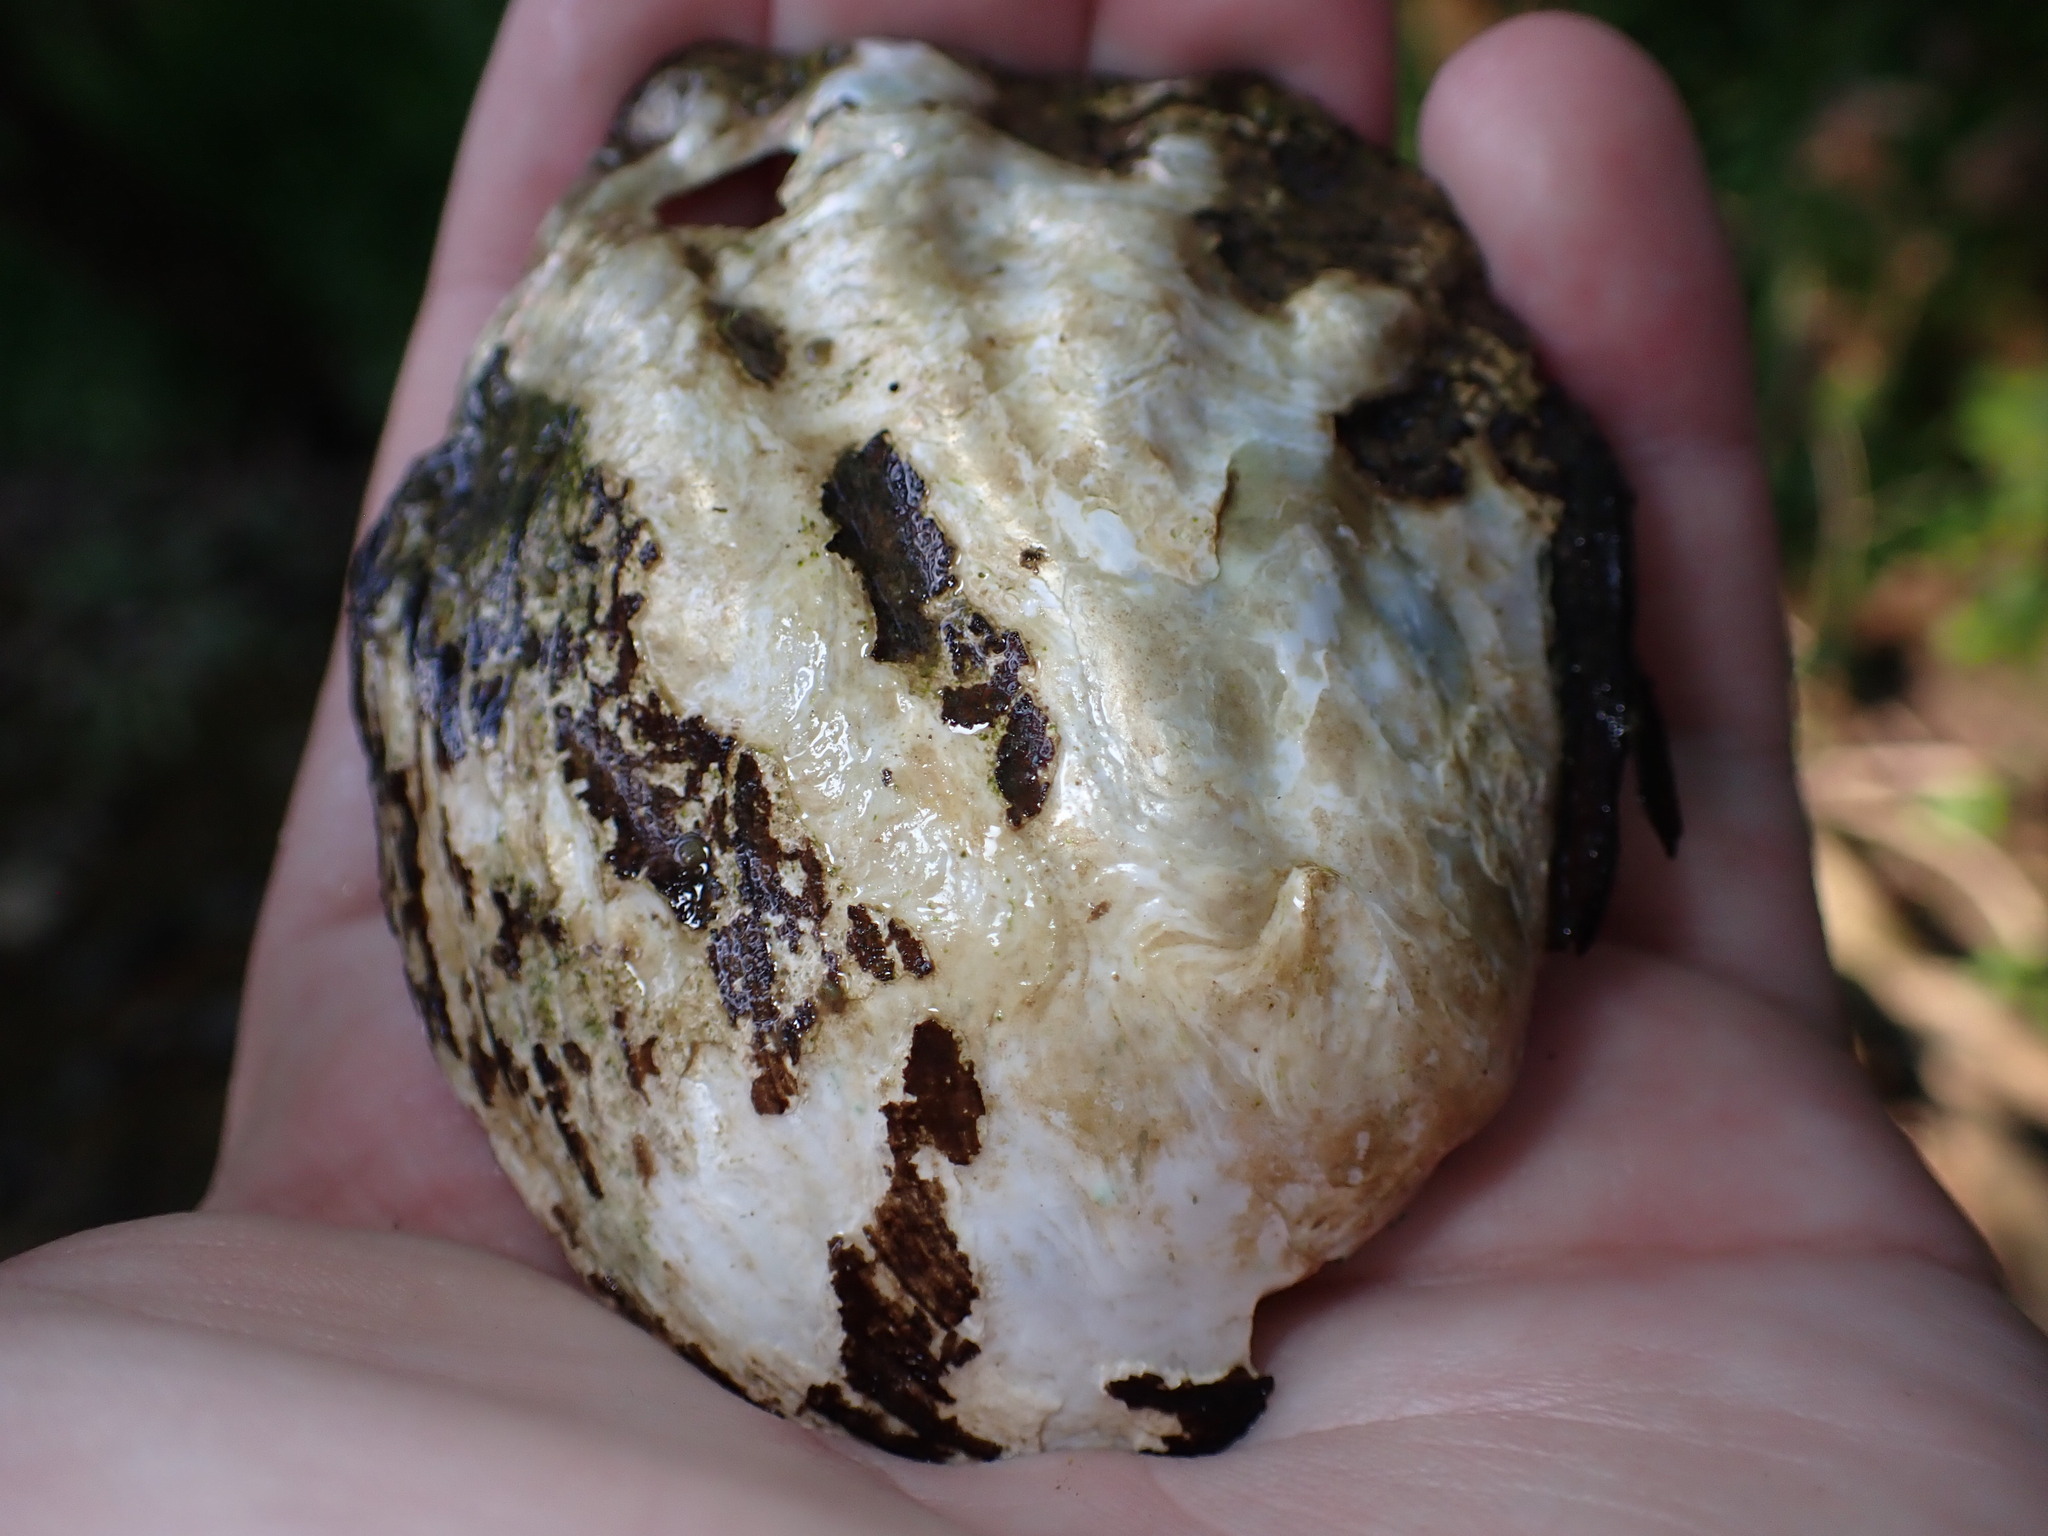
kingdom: Animalia
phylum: Mollusca
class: Bivalvia
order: Unionida
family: Unionidae
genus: Amblema
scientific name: Amblema plicata
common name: Threeridge
